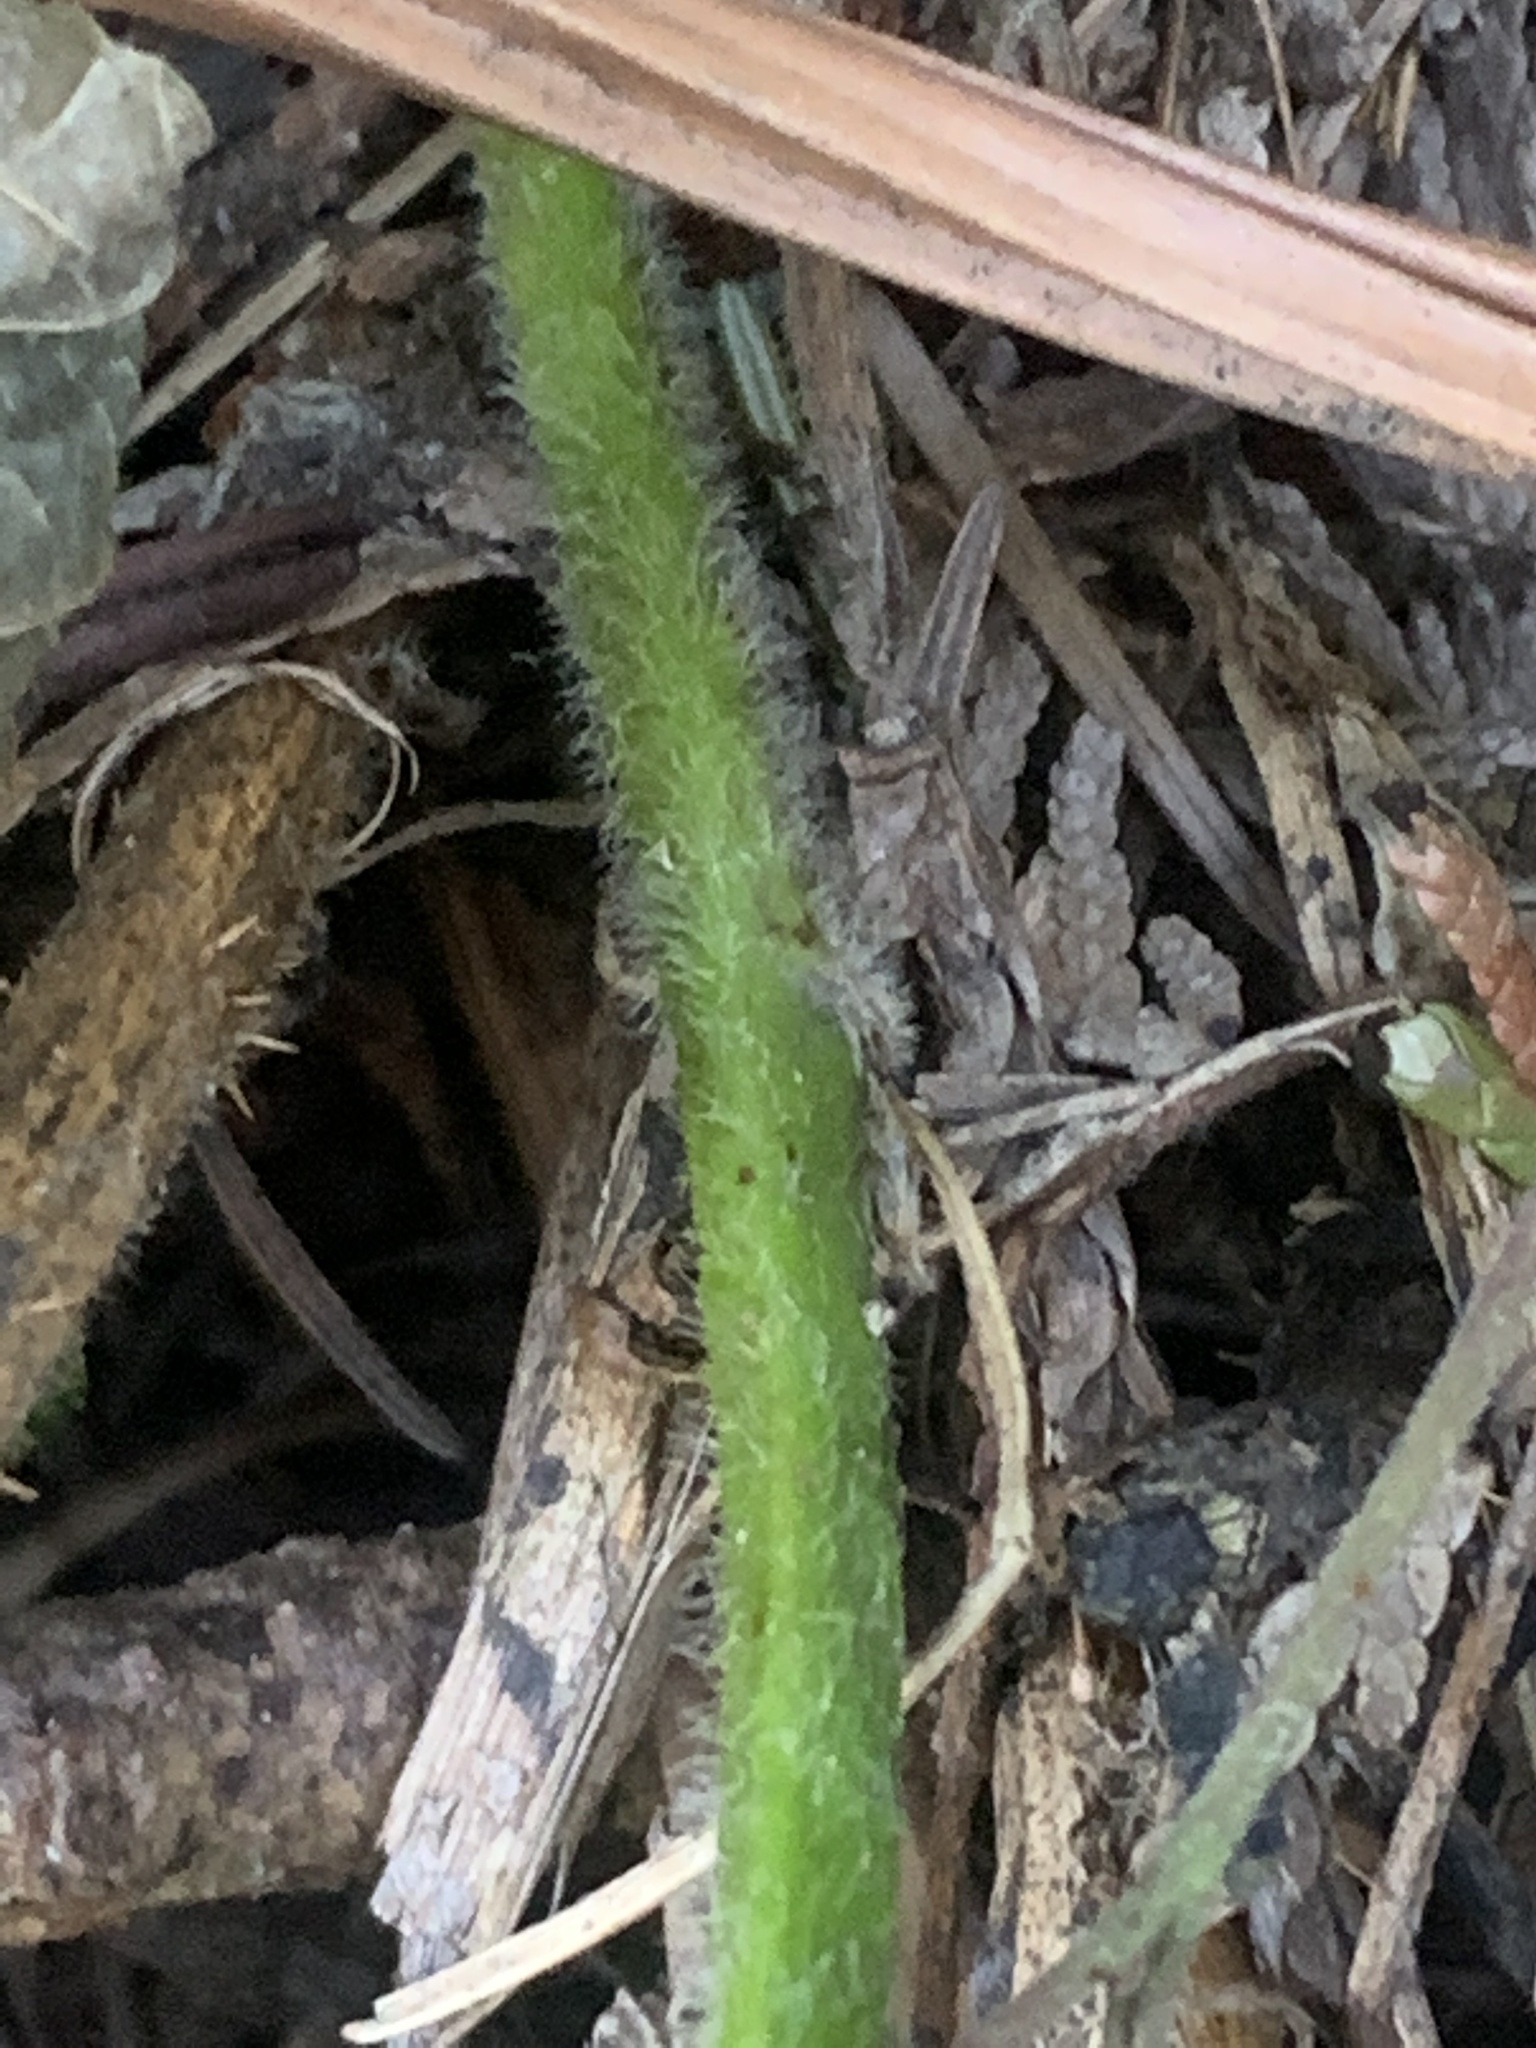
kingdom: Plantae
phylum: Tracheophyta
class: Magnoliopsida
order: Rosales
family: Rosaceae
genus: Rubus
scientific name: Rubus vestitus
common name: European blackberry
